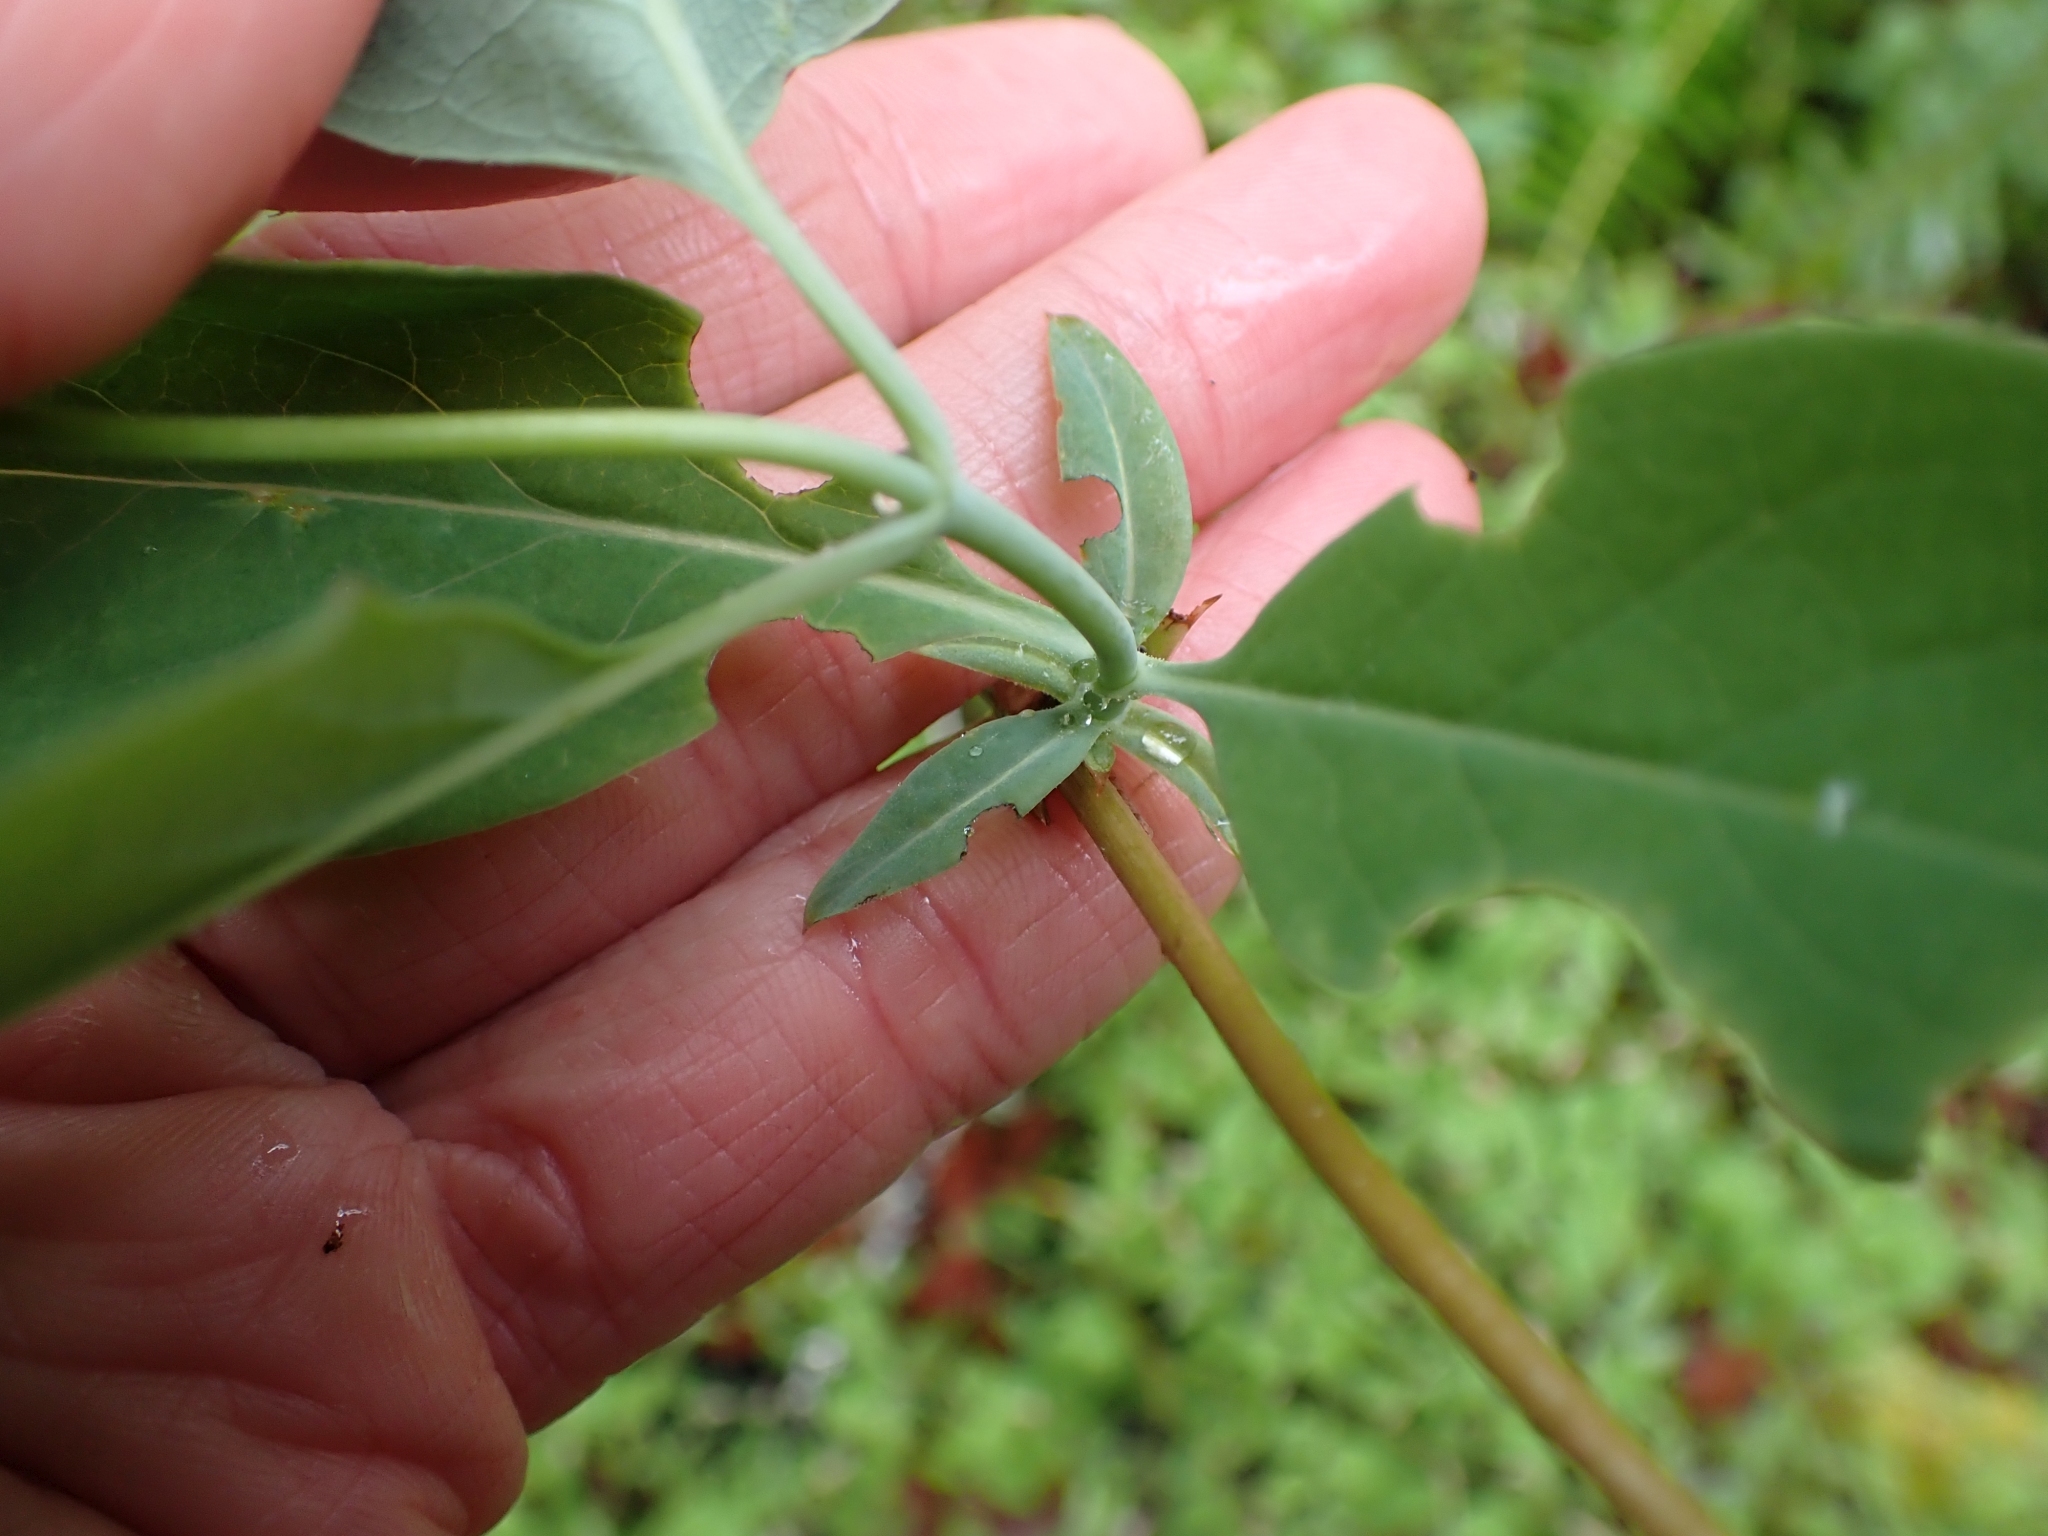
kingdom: Plantae
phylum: Tracheophyta
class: Magnoliopsida
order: Dipsacales
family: Caprifoliaceae
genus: Lonicera
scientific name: Lonicera ciliosa
